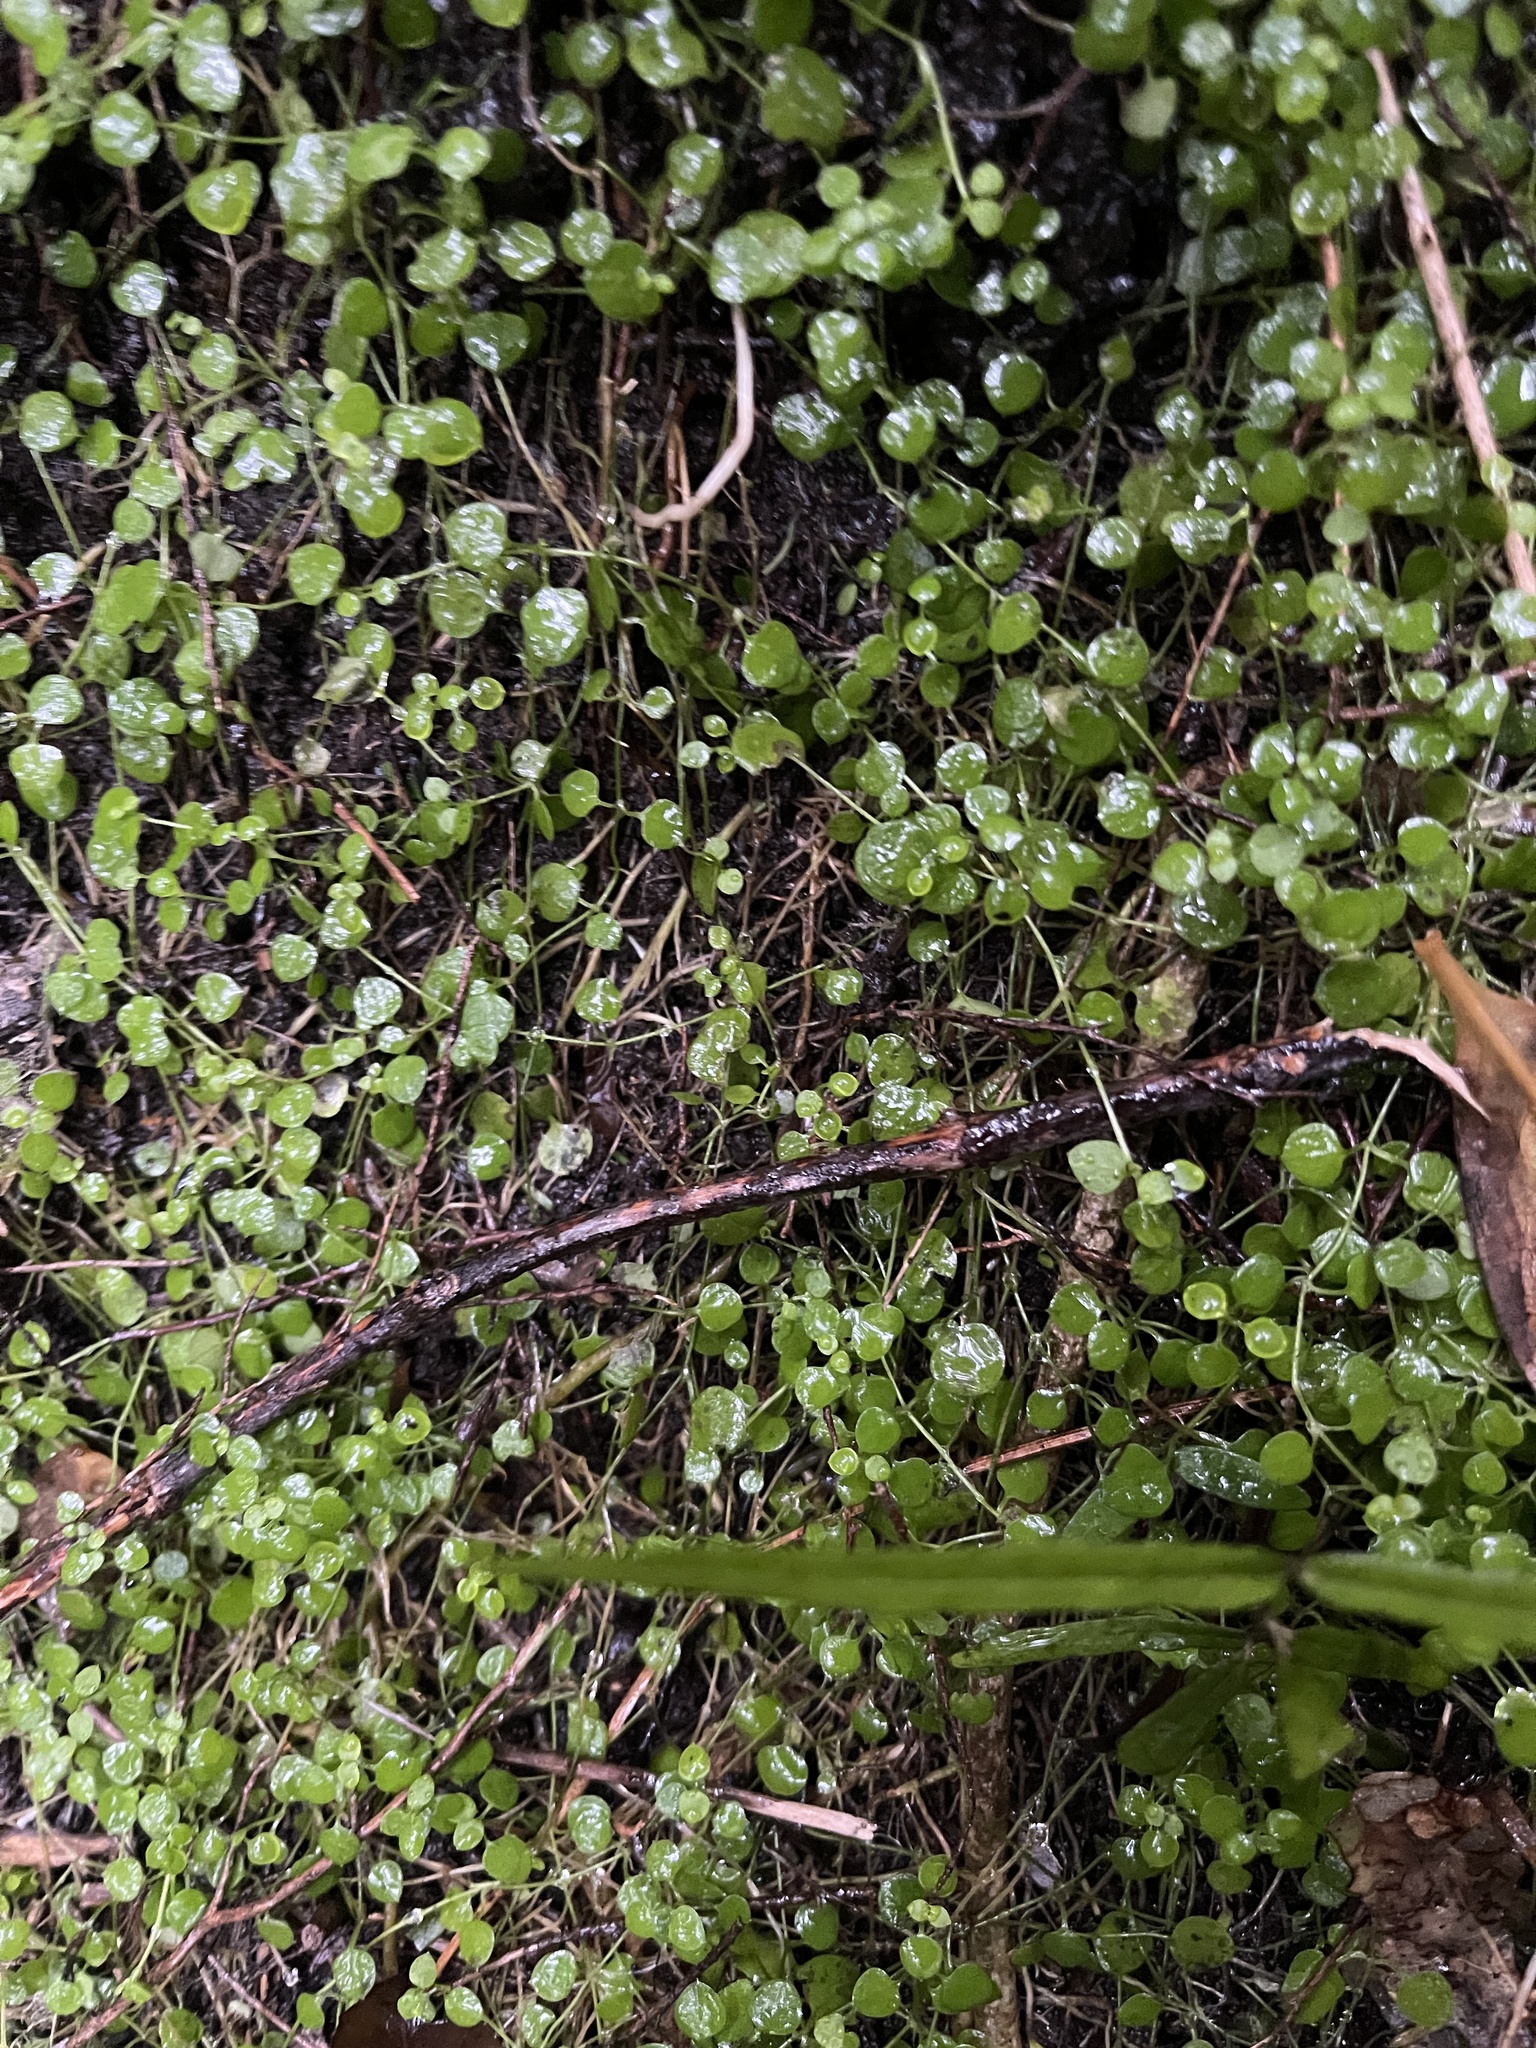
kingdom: Plantae
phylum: Tracheophyta
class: Magnoliopsida
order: Caryophyllales
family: Caryophyllaceae
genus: Stellaria
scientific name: Stellaria parviflora
